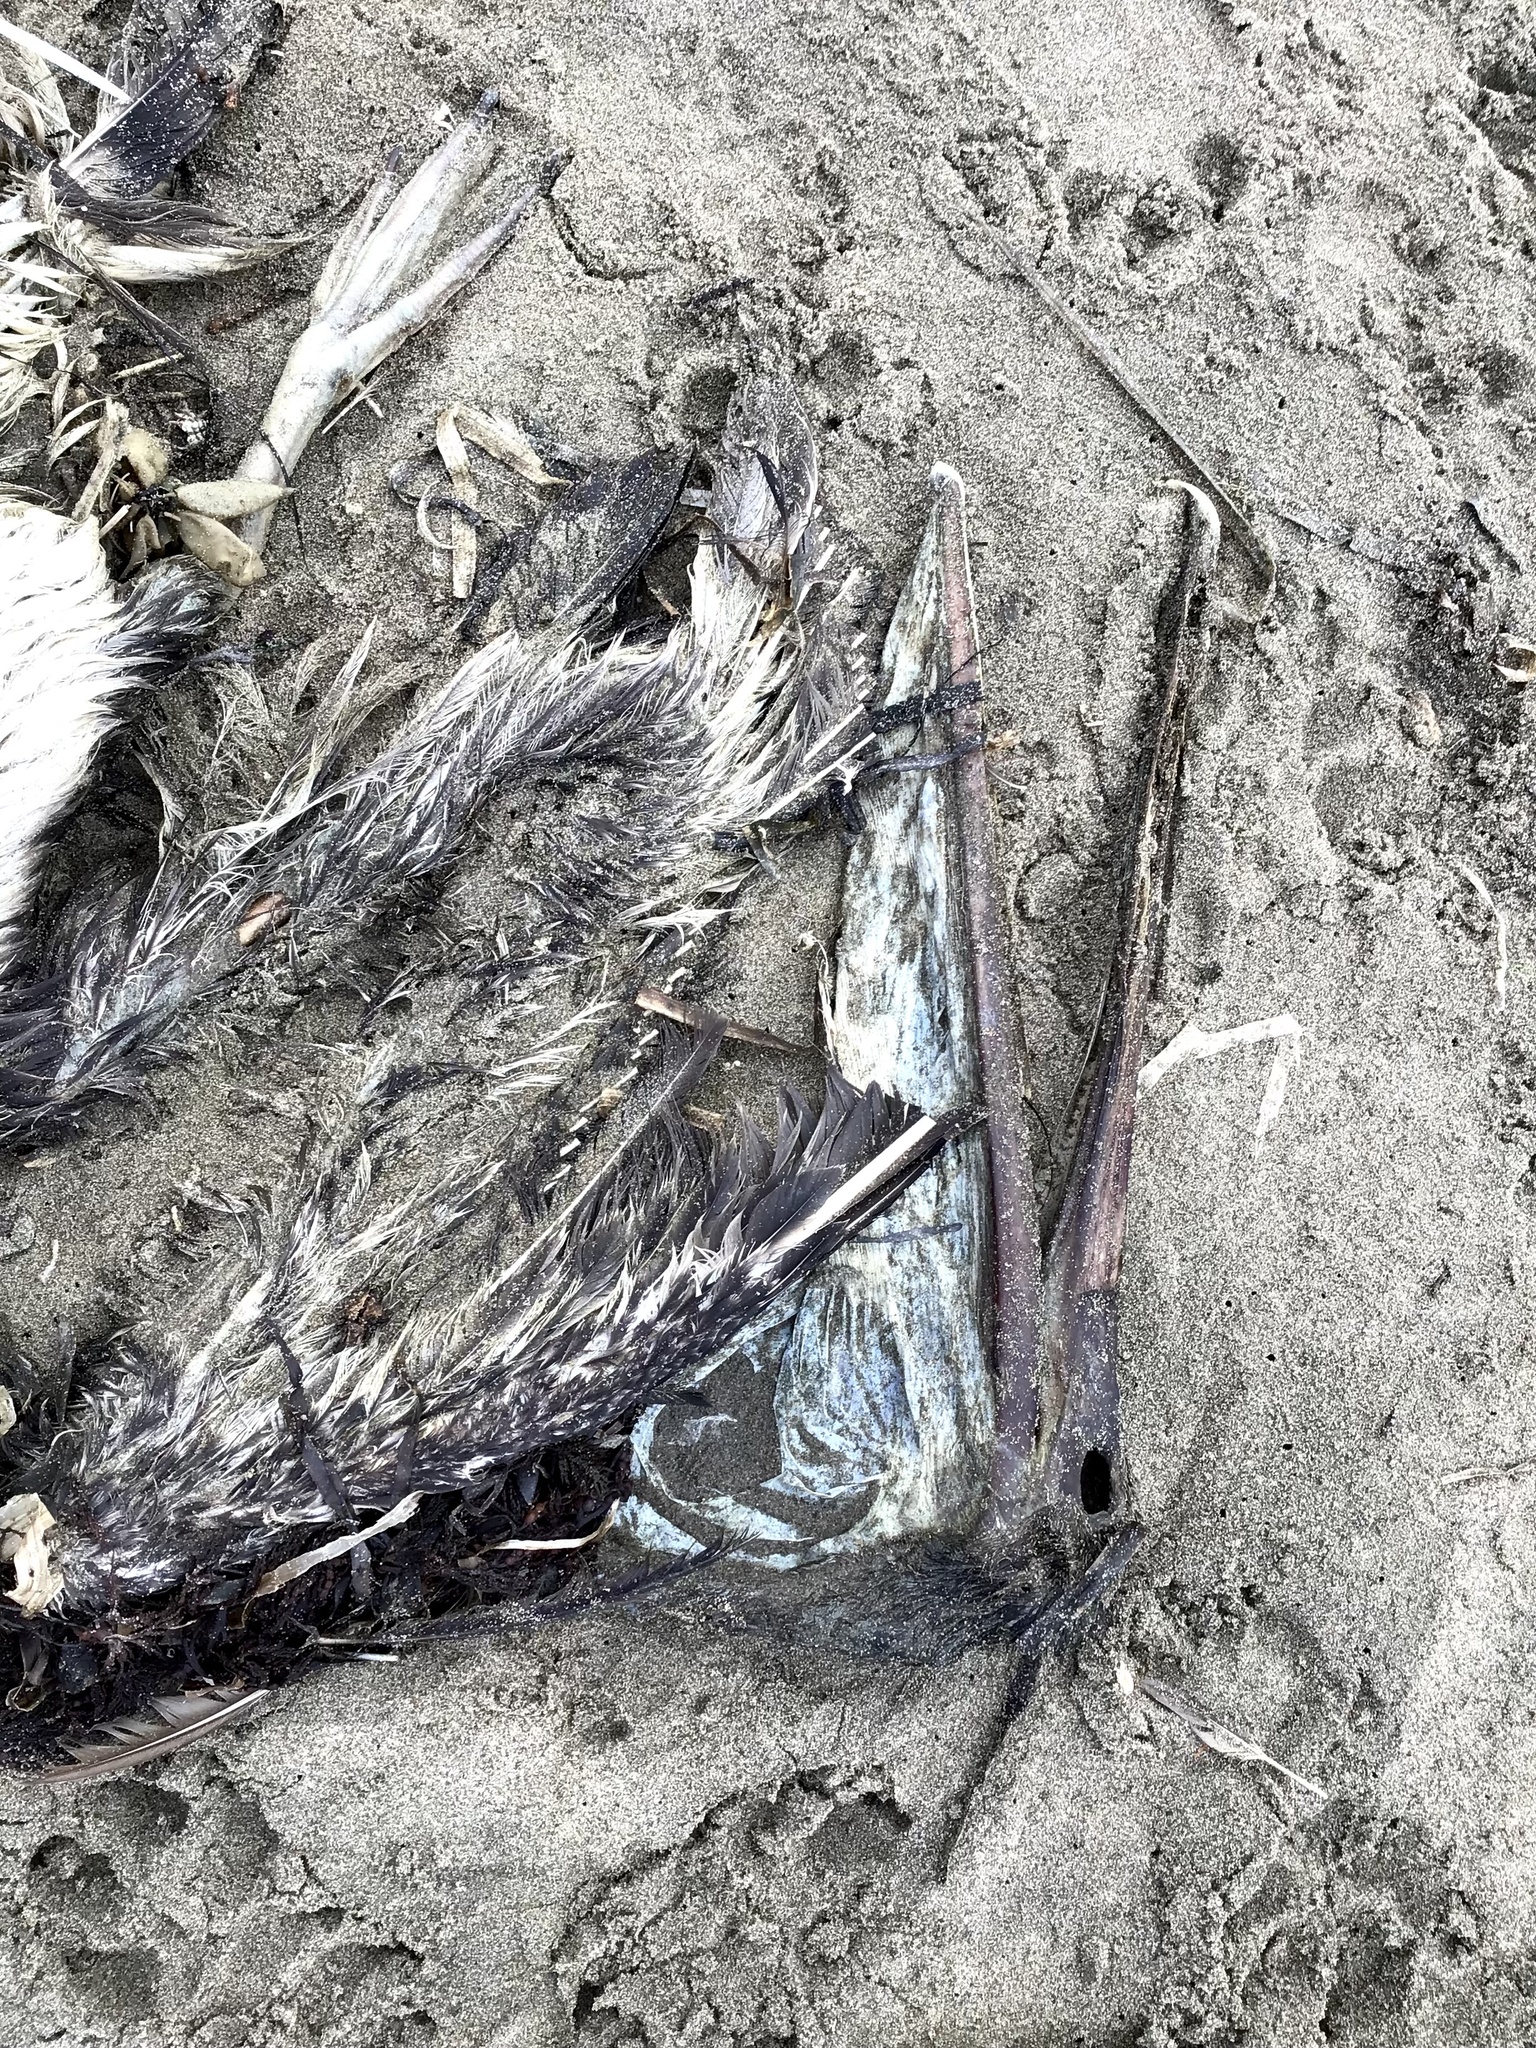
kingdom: Animalia
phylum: Chordata
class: Aves
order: Pelecaniformes
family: Pelecanidae
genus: Pelecanus
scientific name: Pelecanus occidentalis
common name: Brown pelican
